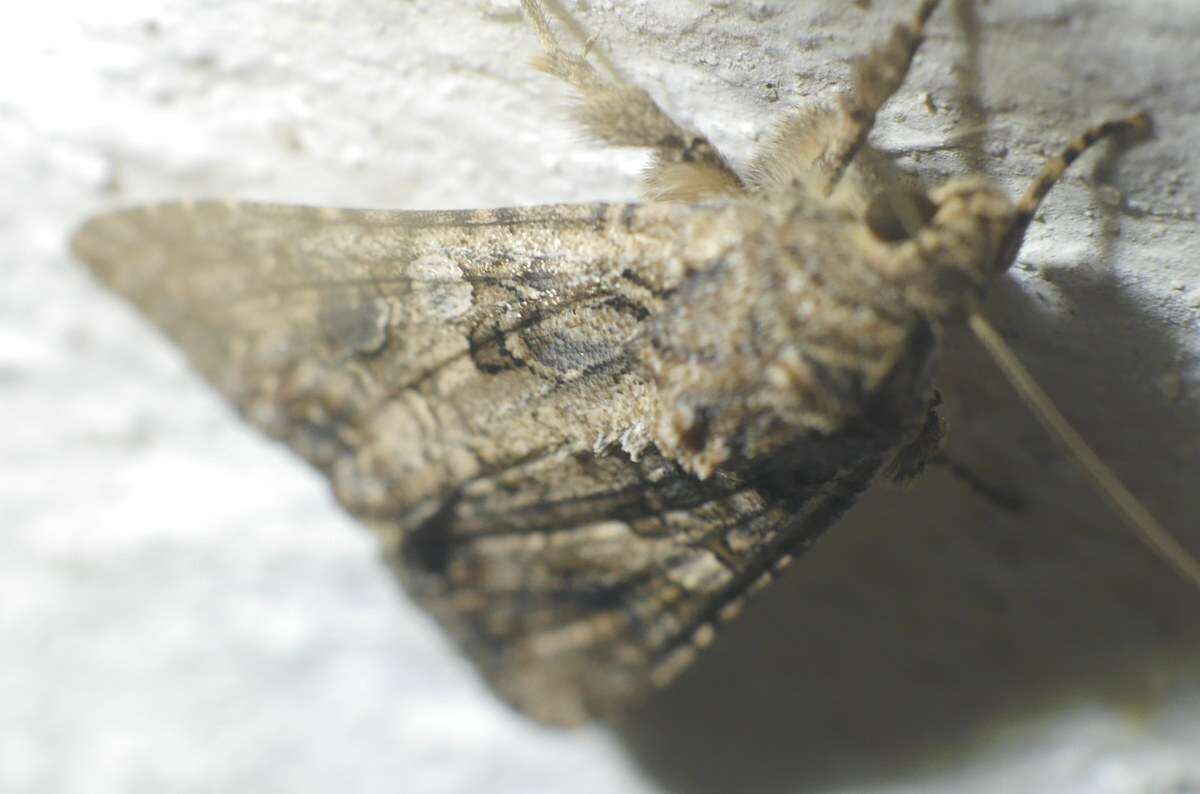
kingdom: Animalia
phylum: Arthropoda
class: Insecta
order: Lepidoptera
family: Noctuidae
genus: Anarta
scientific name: Anarta trifolii
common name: Clover cutworm moth
